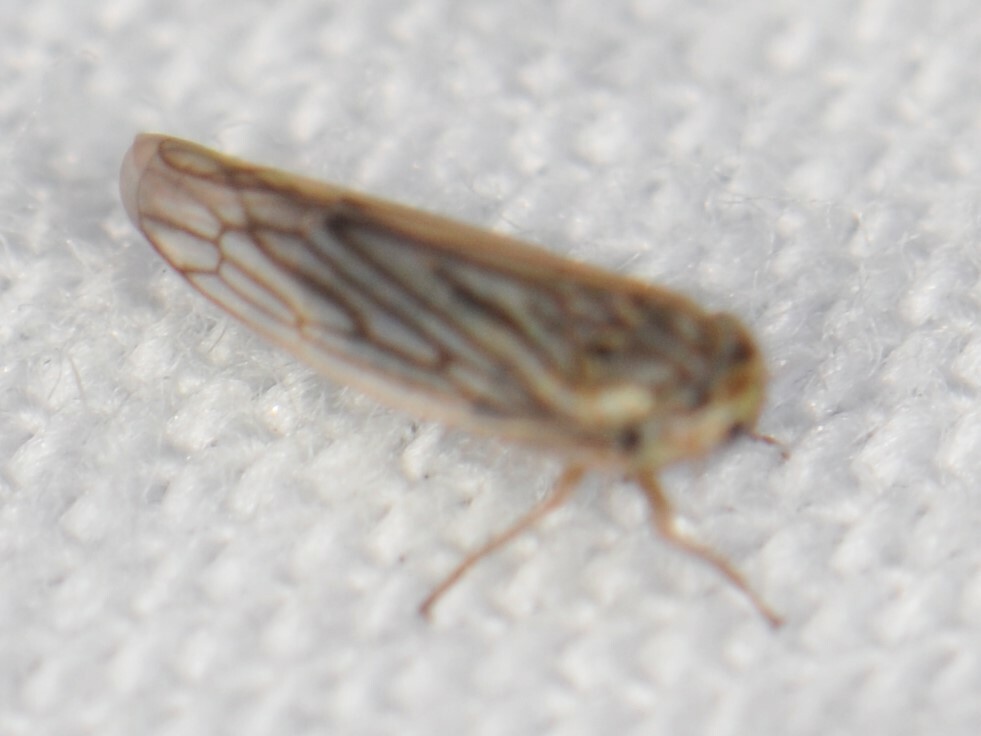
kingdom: Animalia
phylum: Arthropoda
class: Insecta
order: Hemiptera
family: Cicadellidae
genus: Exitianus
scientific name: Exitianus
